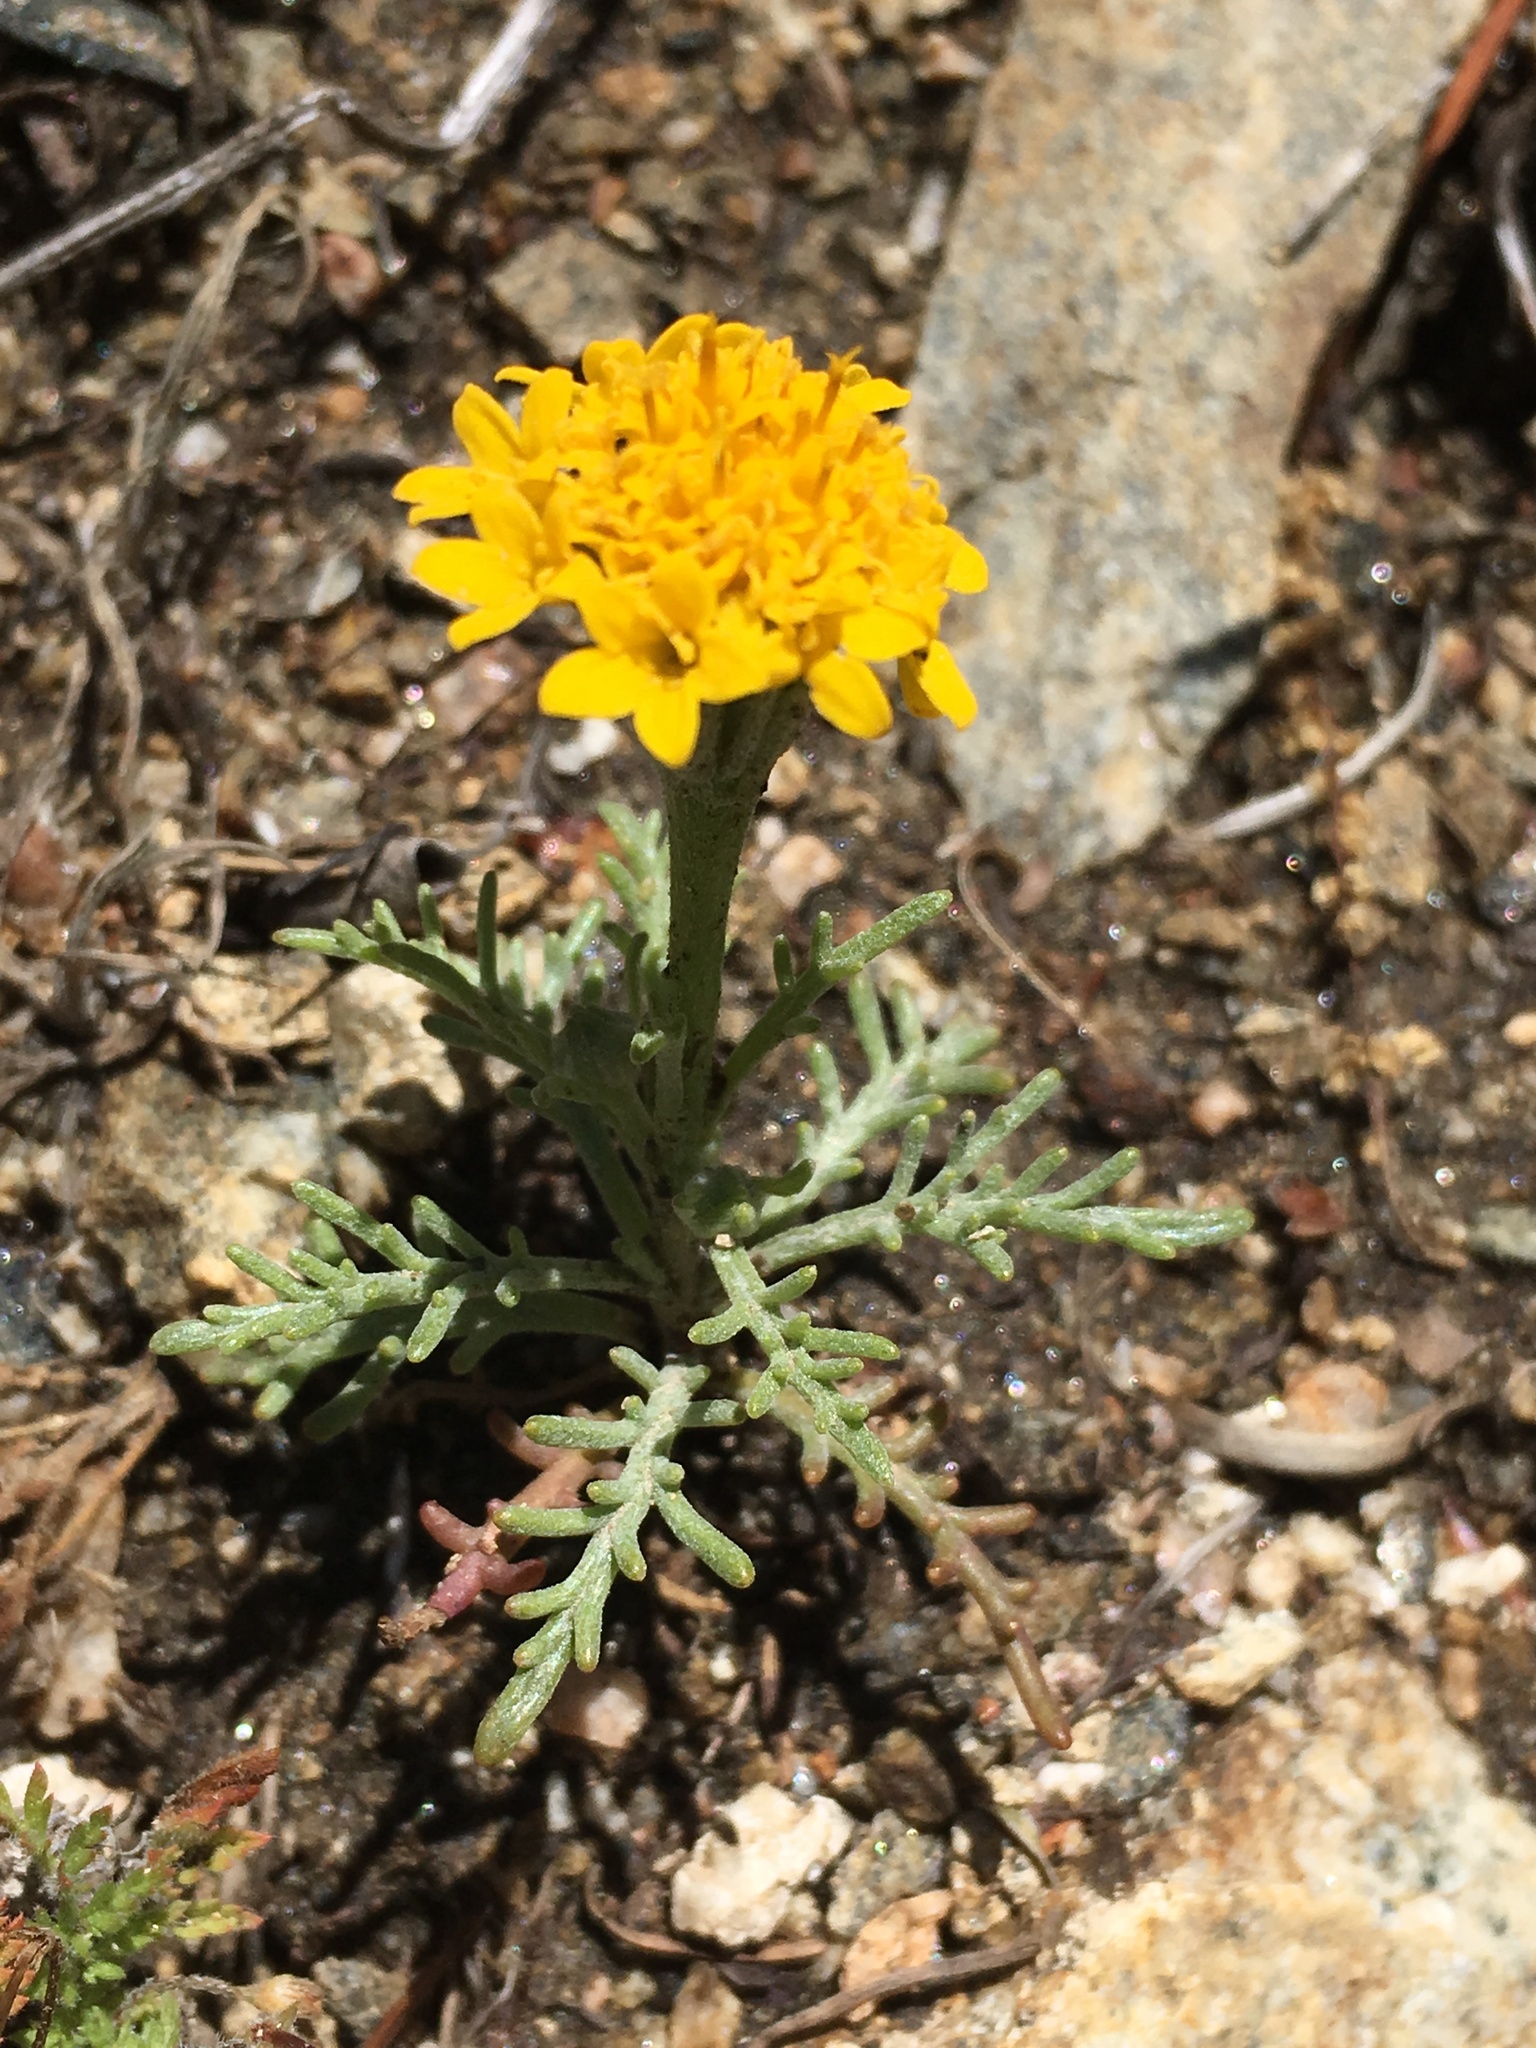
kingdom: Plantae
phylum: Tracheophyta
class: Magnoliopsida
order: Asterales
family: Asteraceae
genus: Chaenactis
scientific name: Chaenactis glabriuscula
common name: Yellow pincushion
